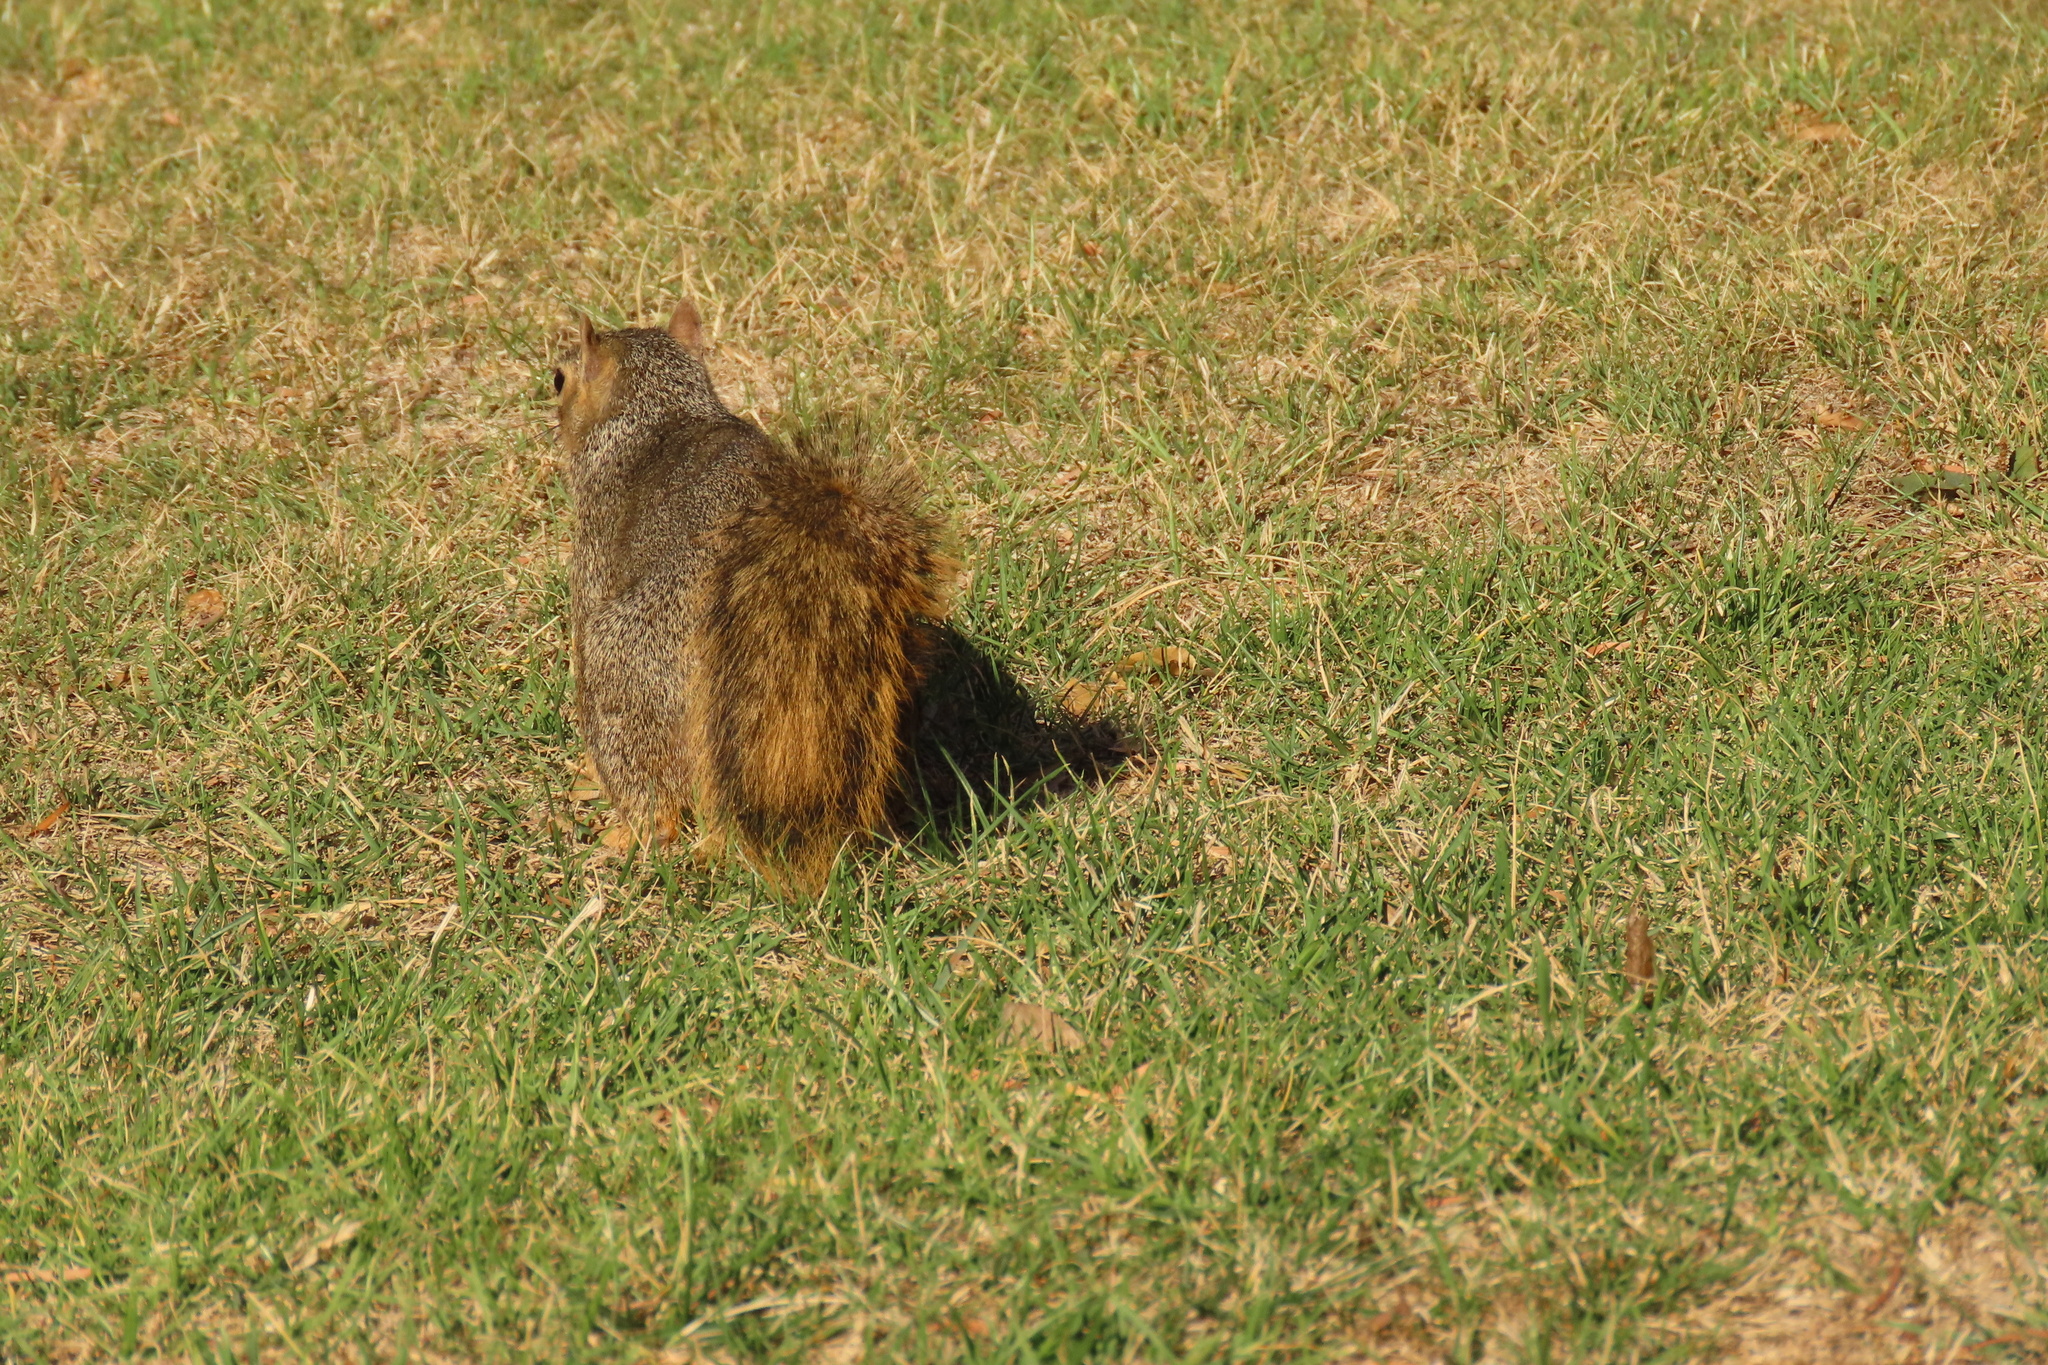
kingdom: Animalia
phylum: Chordata
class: Mammalia
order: Rodentia
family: Sciuridae
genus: Sciurus
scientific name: Sciurus niger
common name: Fox squirrel
